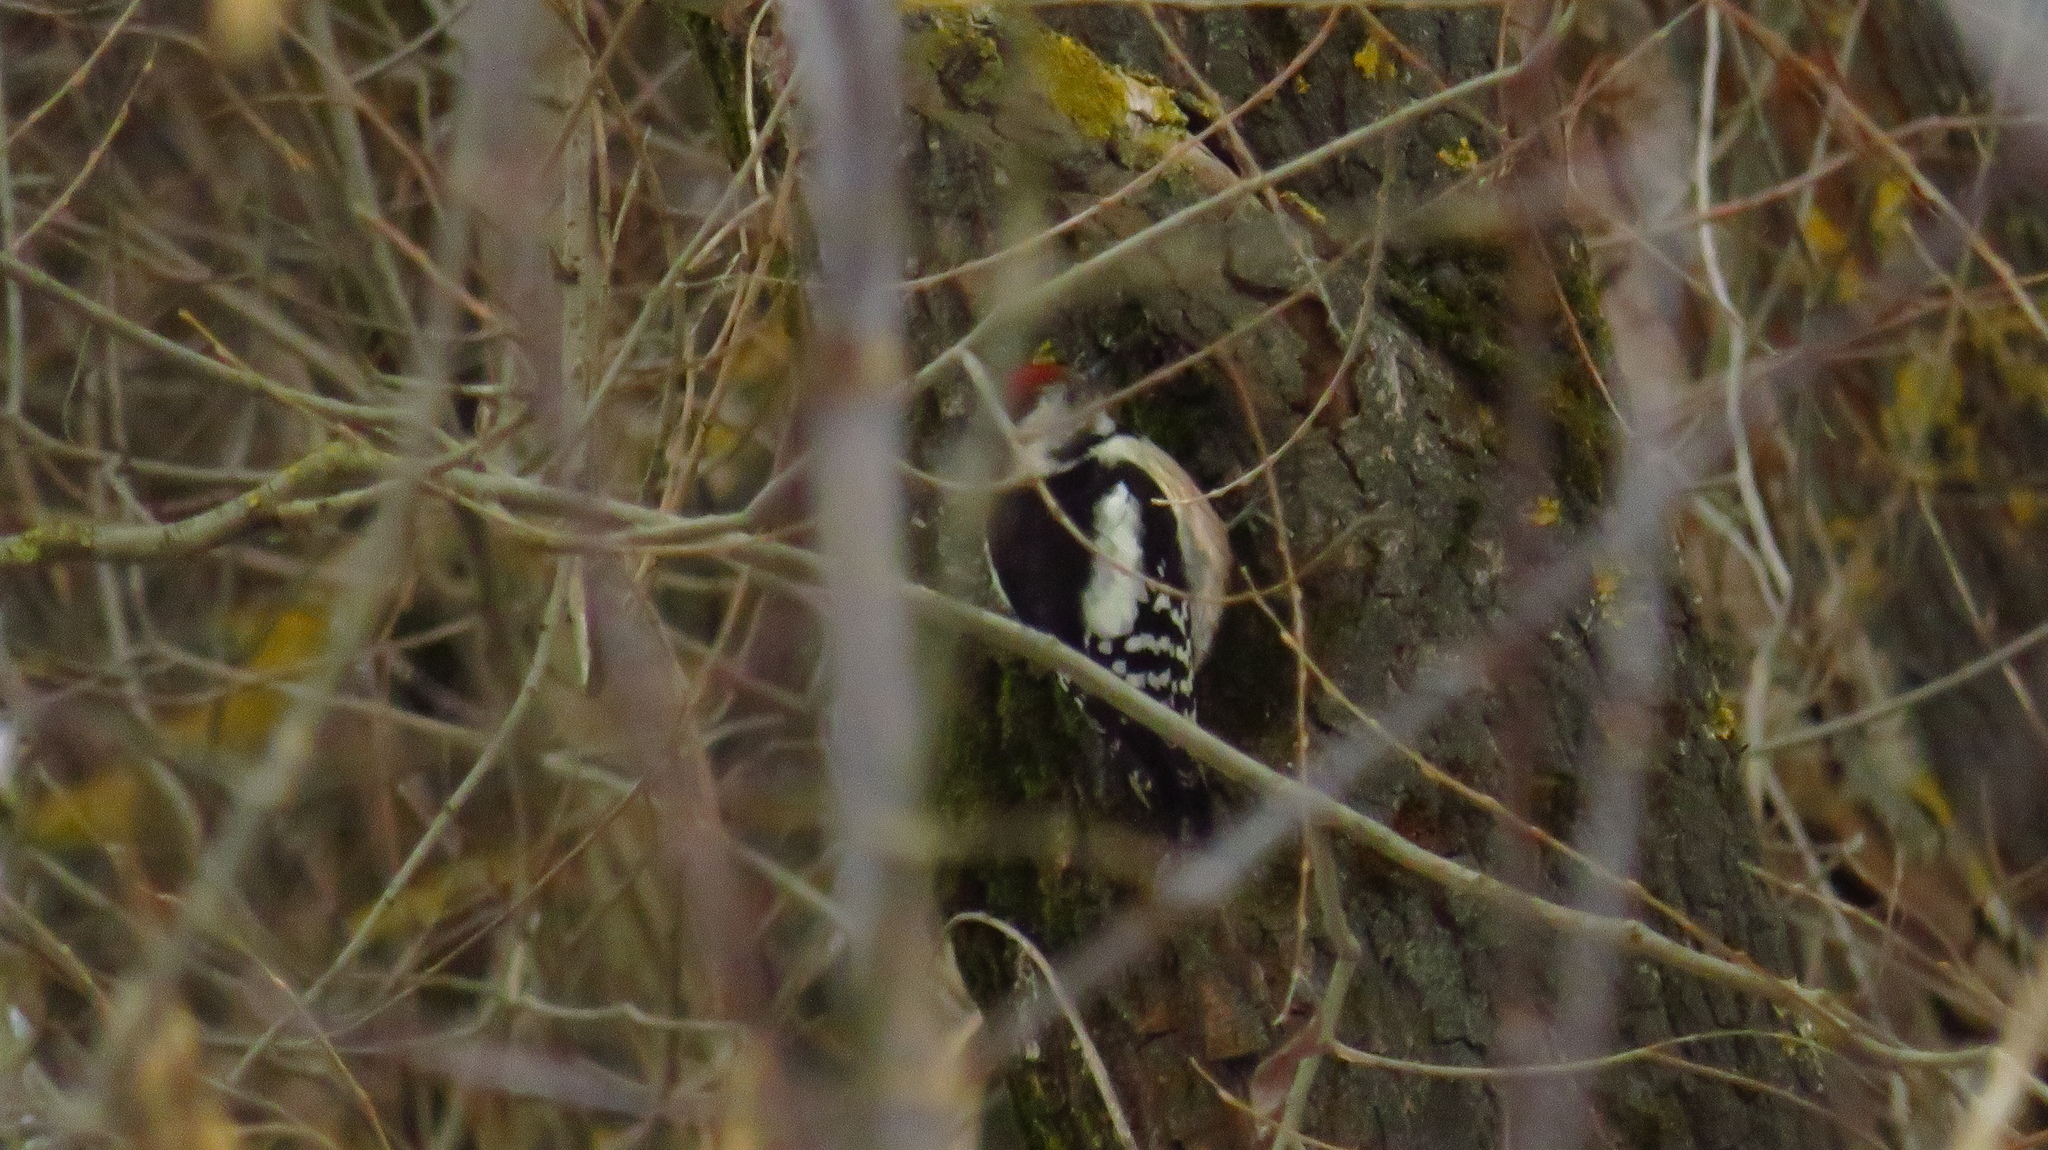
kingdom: Animalia
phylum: Chordata
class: Aves
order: Piciformes
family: Picidae
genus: Dendrocoptes
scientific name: Dendrocoptes medius
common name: Middle spotted woodpecker
